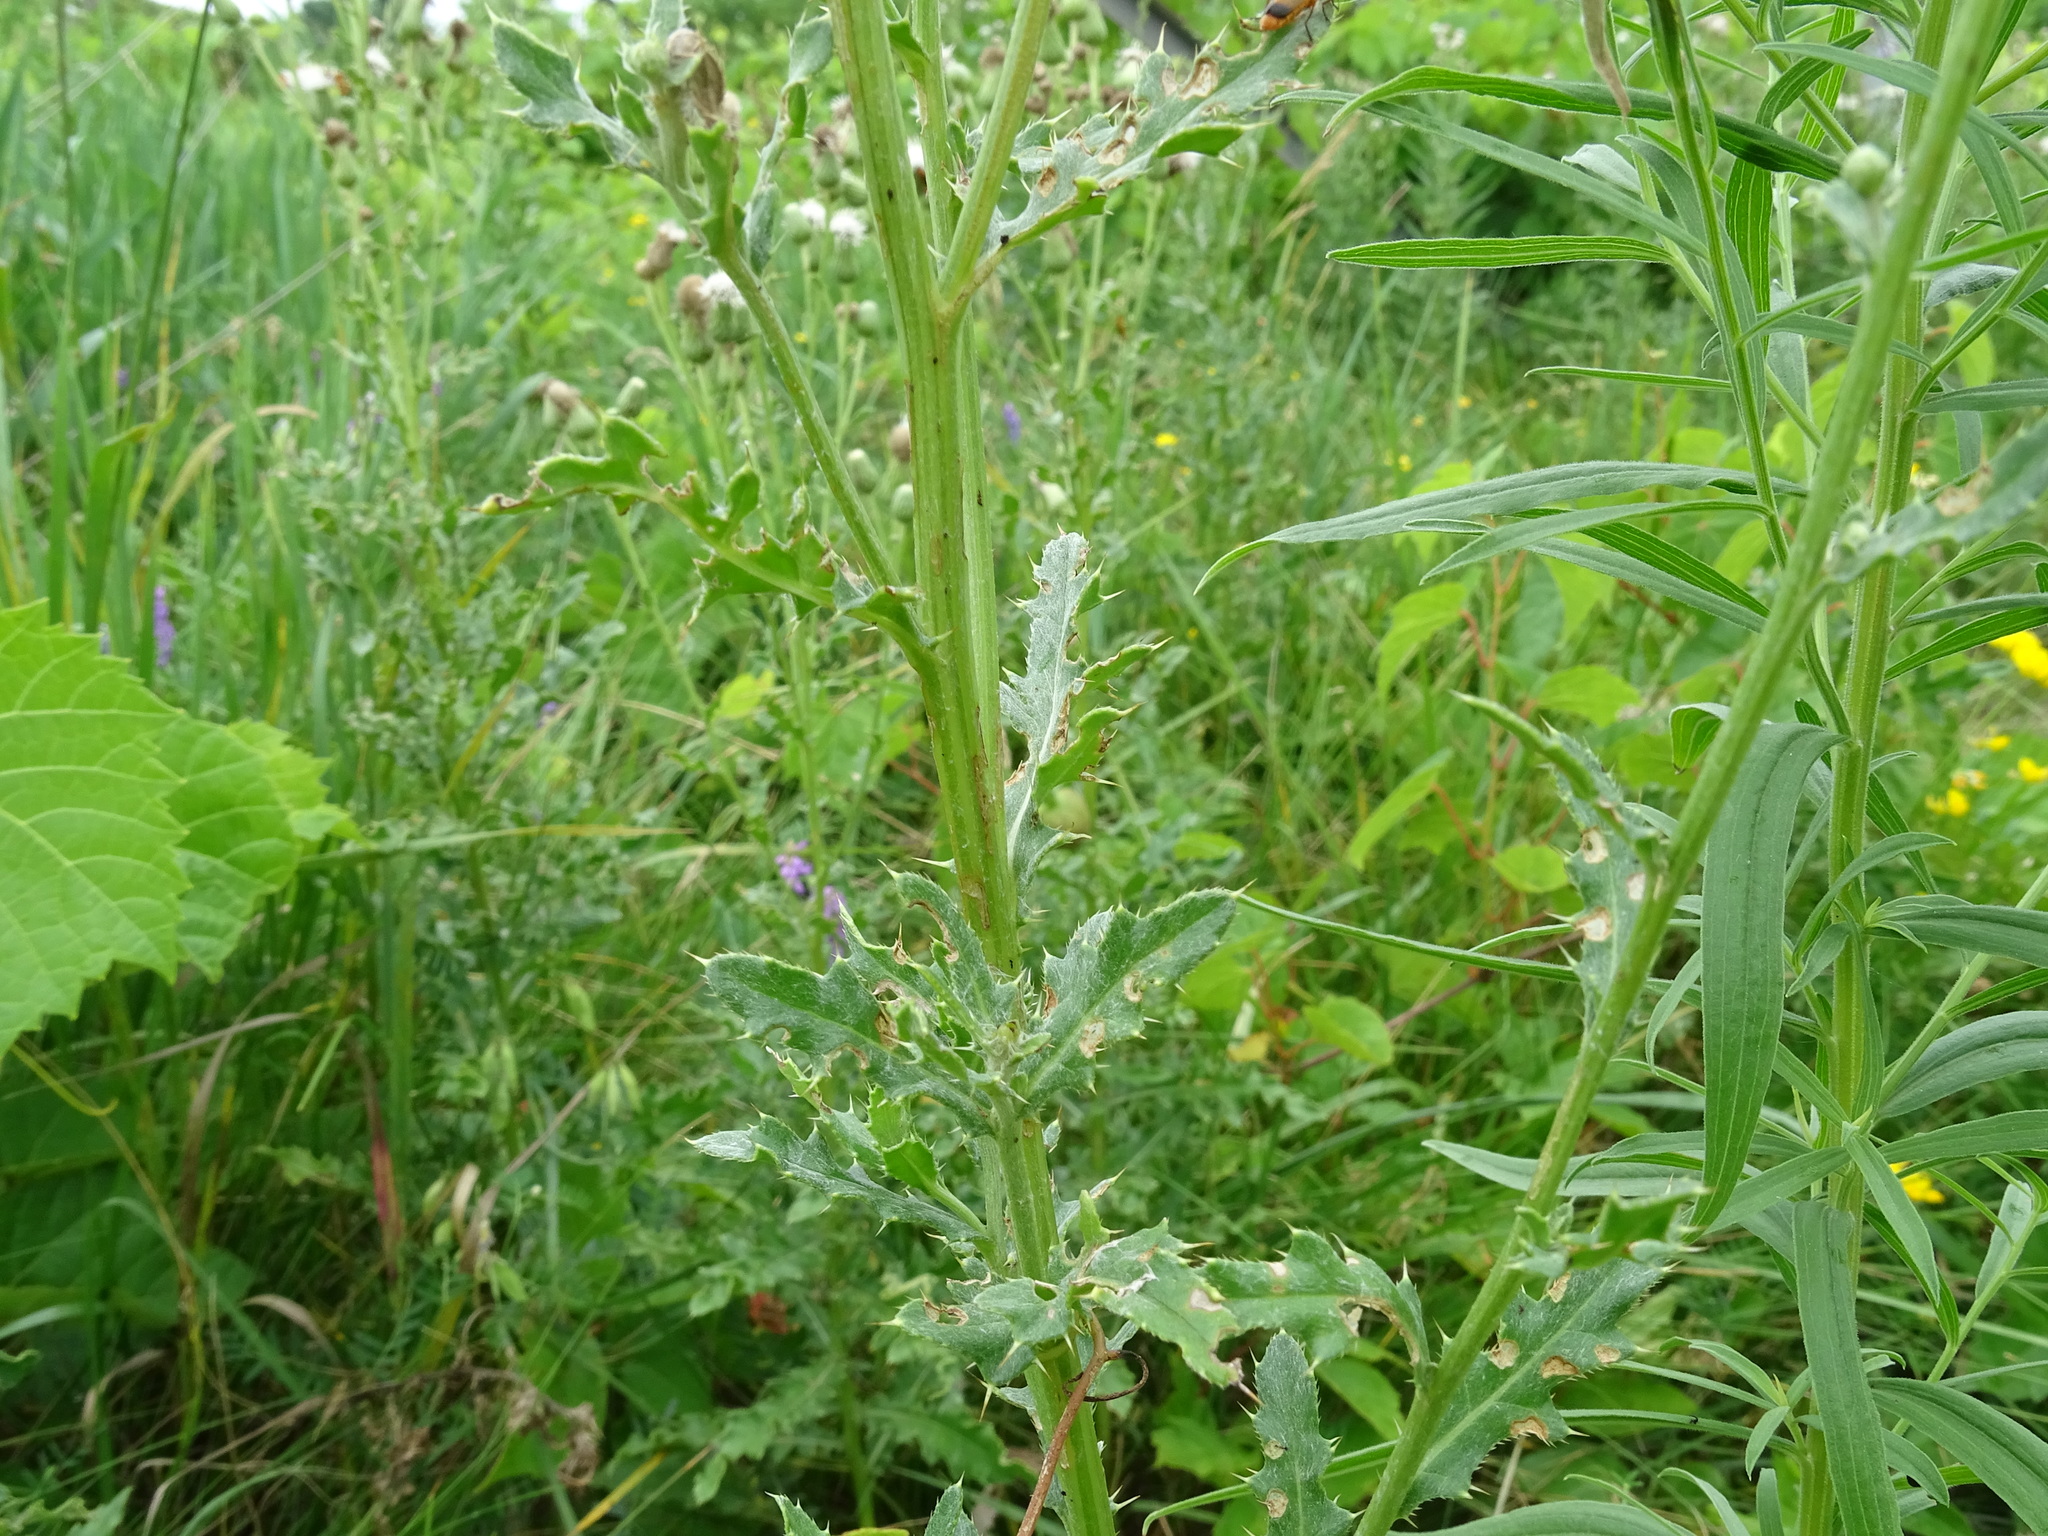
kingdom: Plantae
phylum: Tracheophyta
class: Magnoliopsida
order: Asterales
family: Asteraceae
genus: Cirsium
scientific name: Cirsium arvense
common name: Creeping thistle
